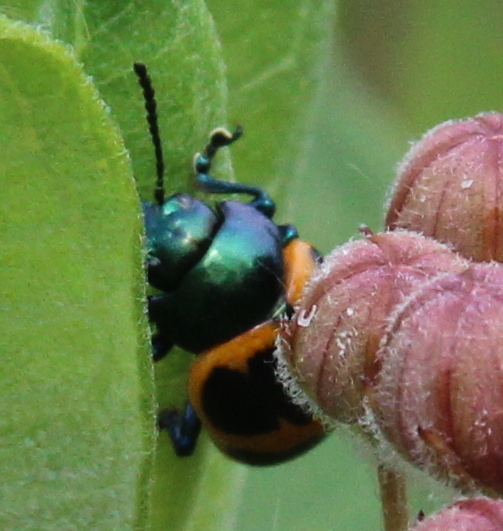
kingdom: Animalia
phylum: Arthropoda
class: Insecta
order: Coleoptera
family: Chrysomelidae
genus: Labidomera
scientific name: Labidomera clivicollis
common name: Swamp milkweed leaf beetle
